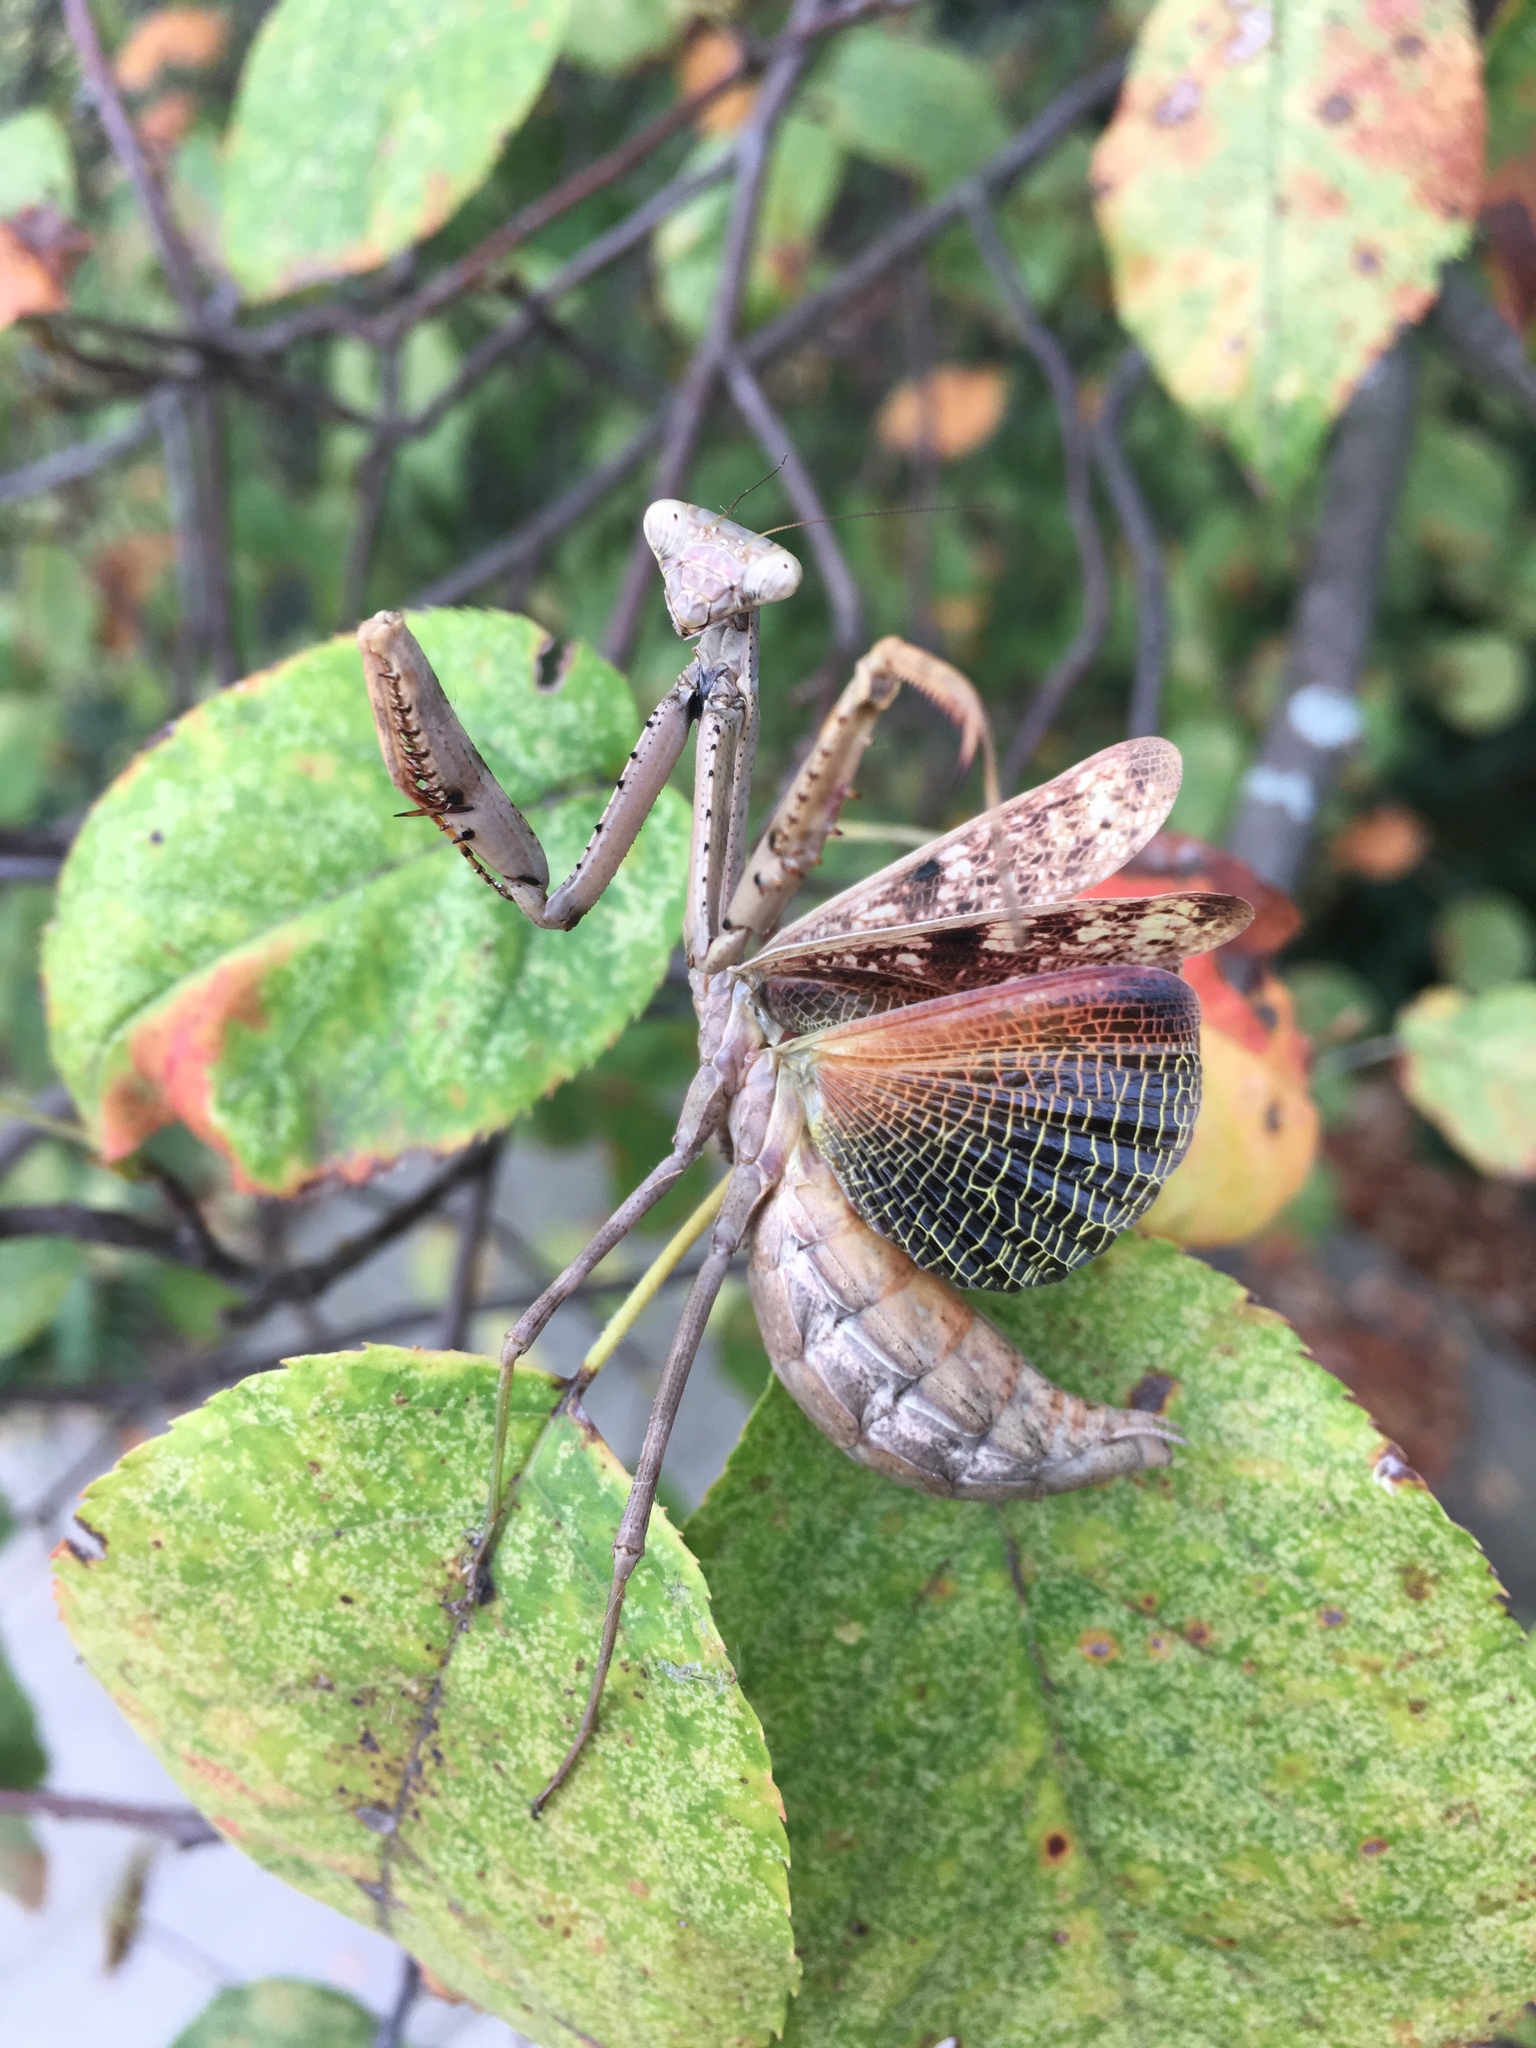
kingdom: Animalia
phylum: Arthropoda
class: Insecta
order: Mantodea
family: Mantidae
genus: Stagmomantis
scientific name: Stagmomantis carolina
